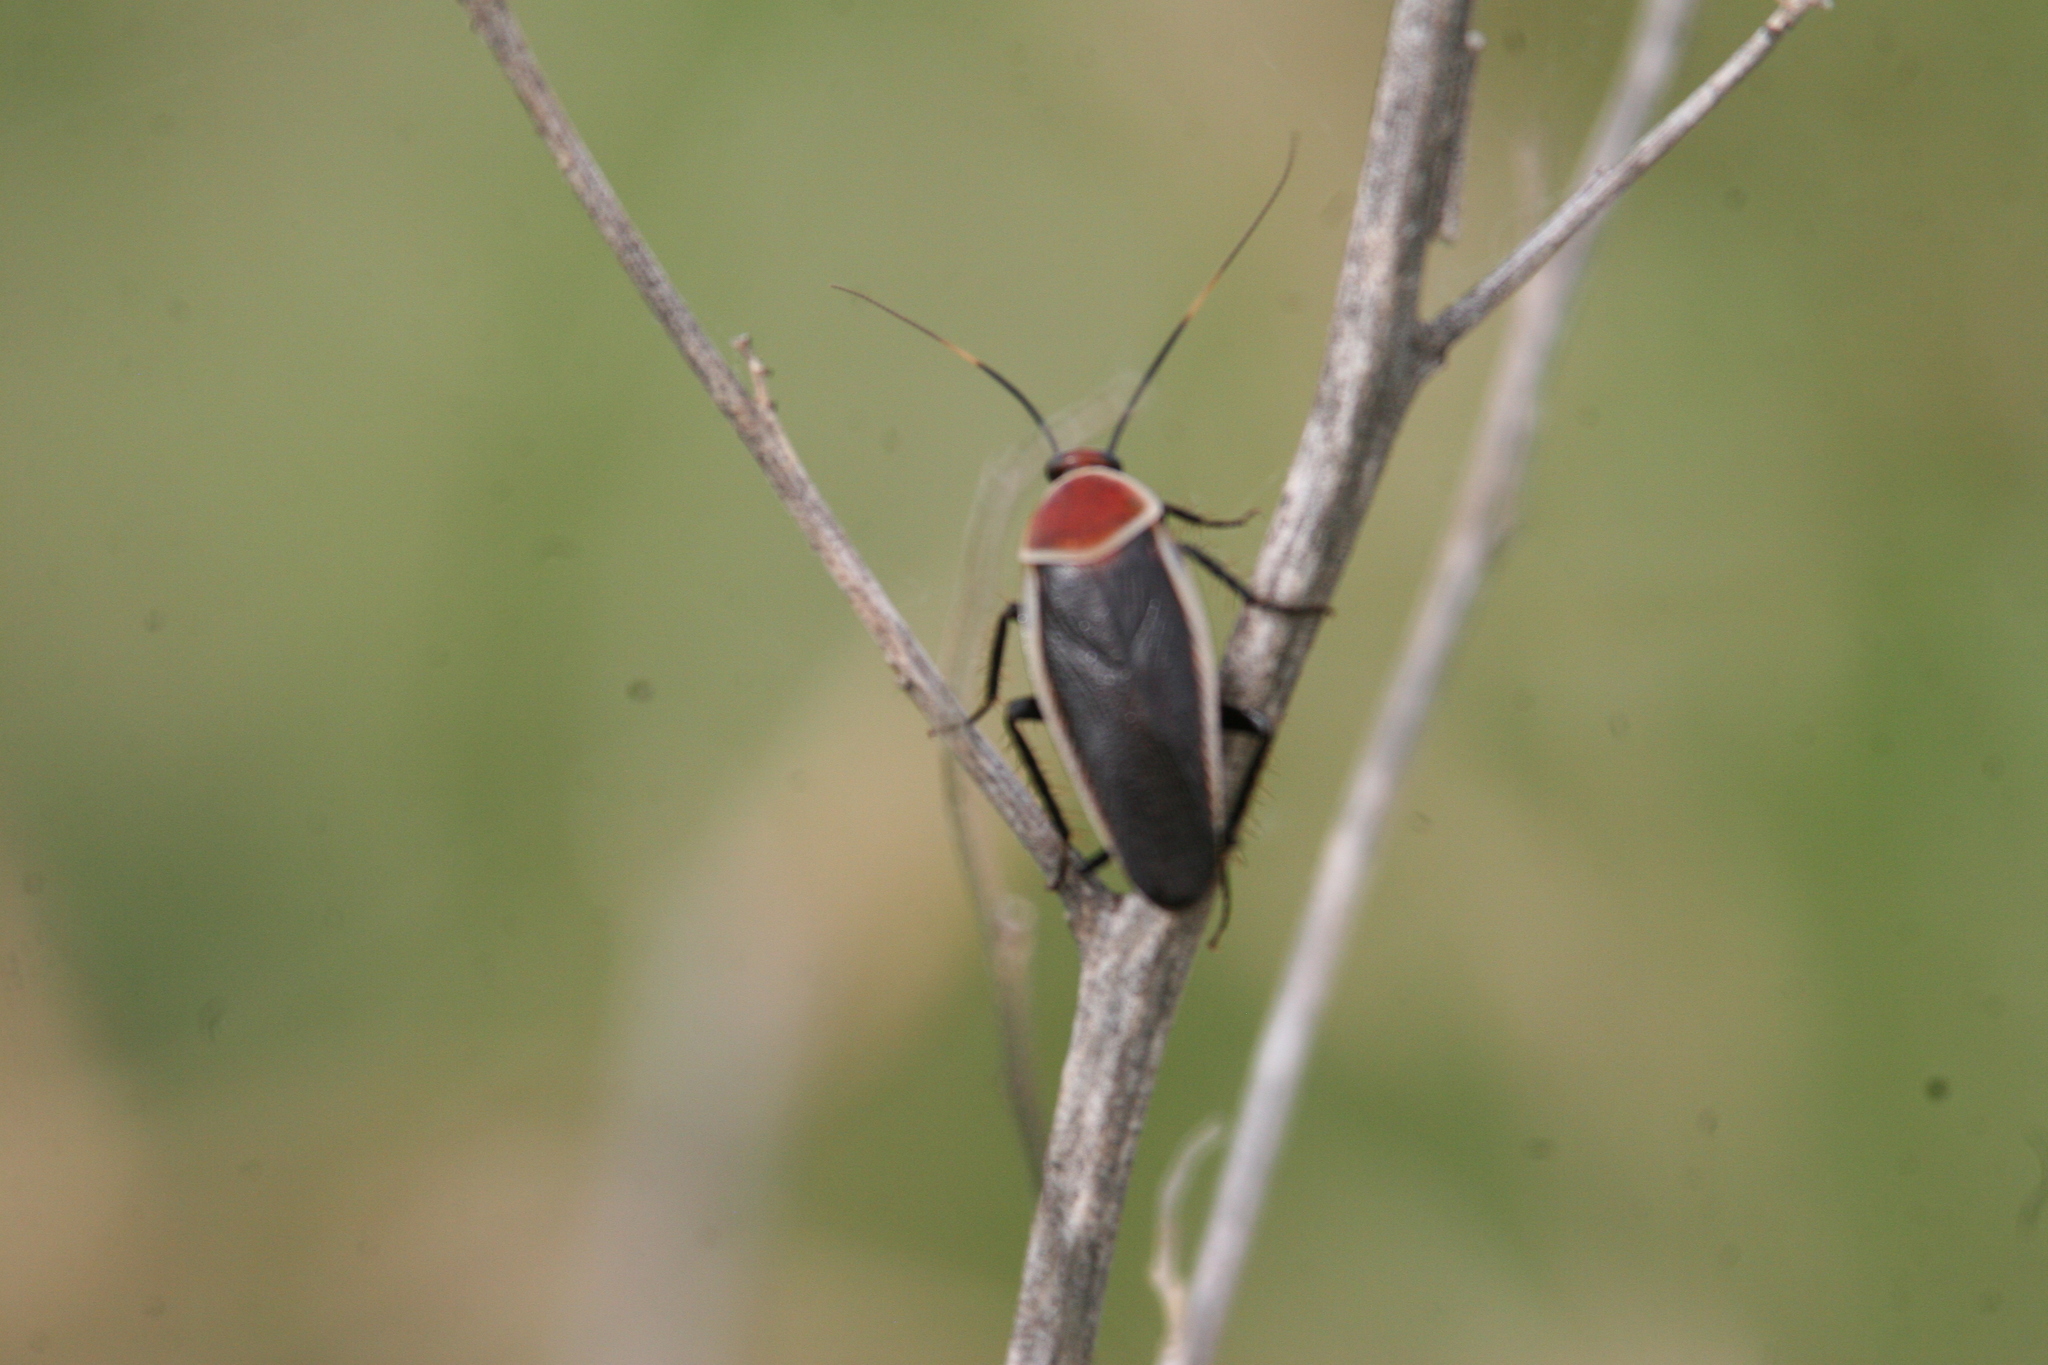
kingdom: Animalia
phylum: Arthropoda
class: Insecta
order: Blattodea
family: Ectobiidae
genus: Pseudomops
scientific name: Pseudomops septentrionalis
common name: Pale-bordered field cockroach
